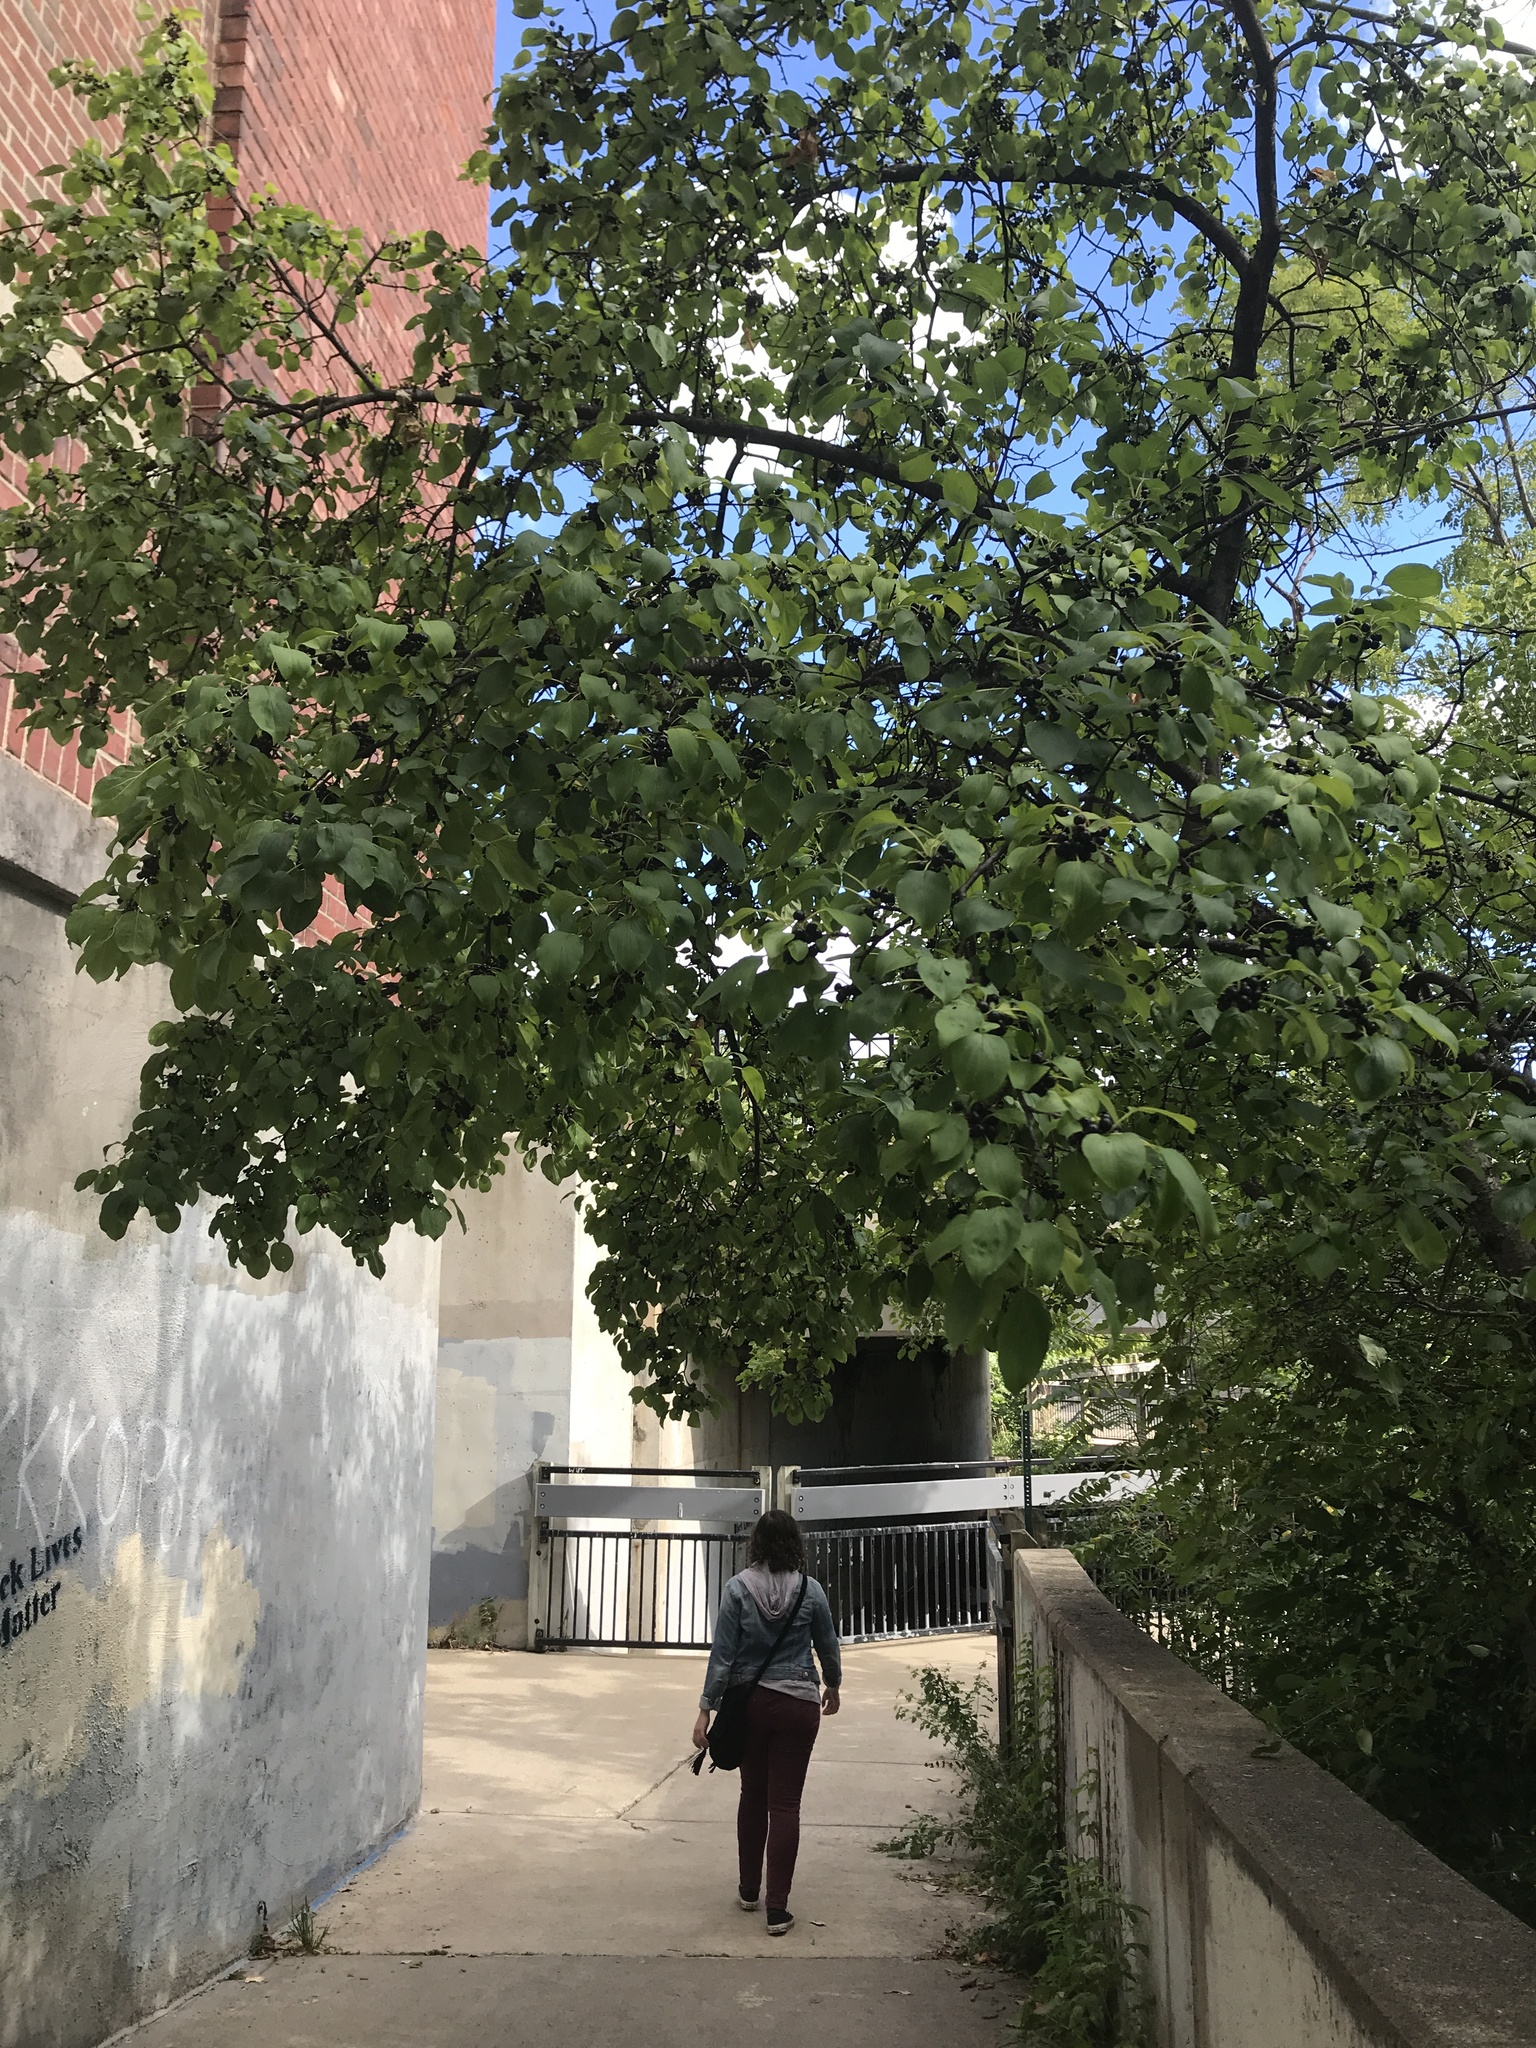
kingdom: Plantae
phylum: Tracheophyta
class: Magnoliopsida
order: Rosales
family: Rhamnaceae
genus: Rhamnus
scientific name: Rhamnus cathartica
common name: Common buckthorn
